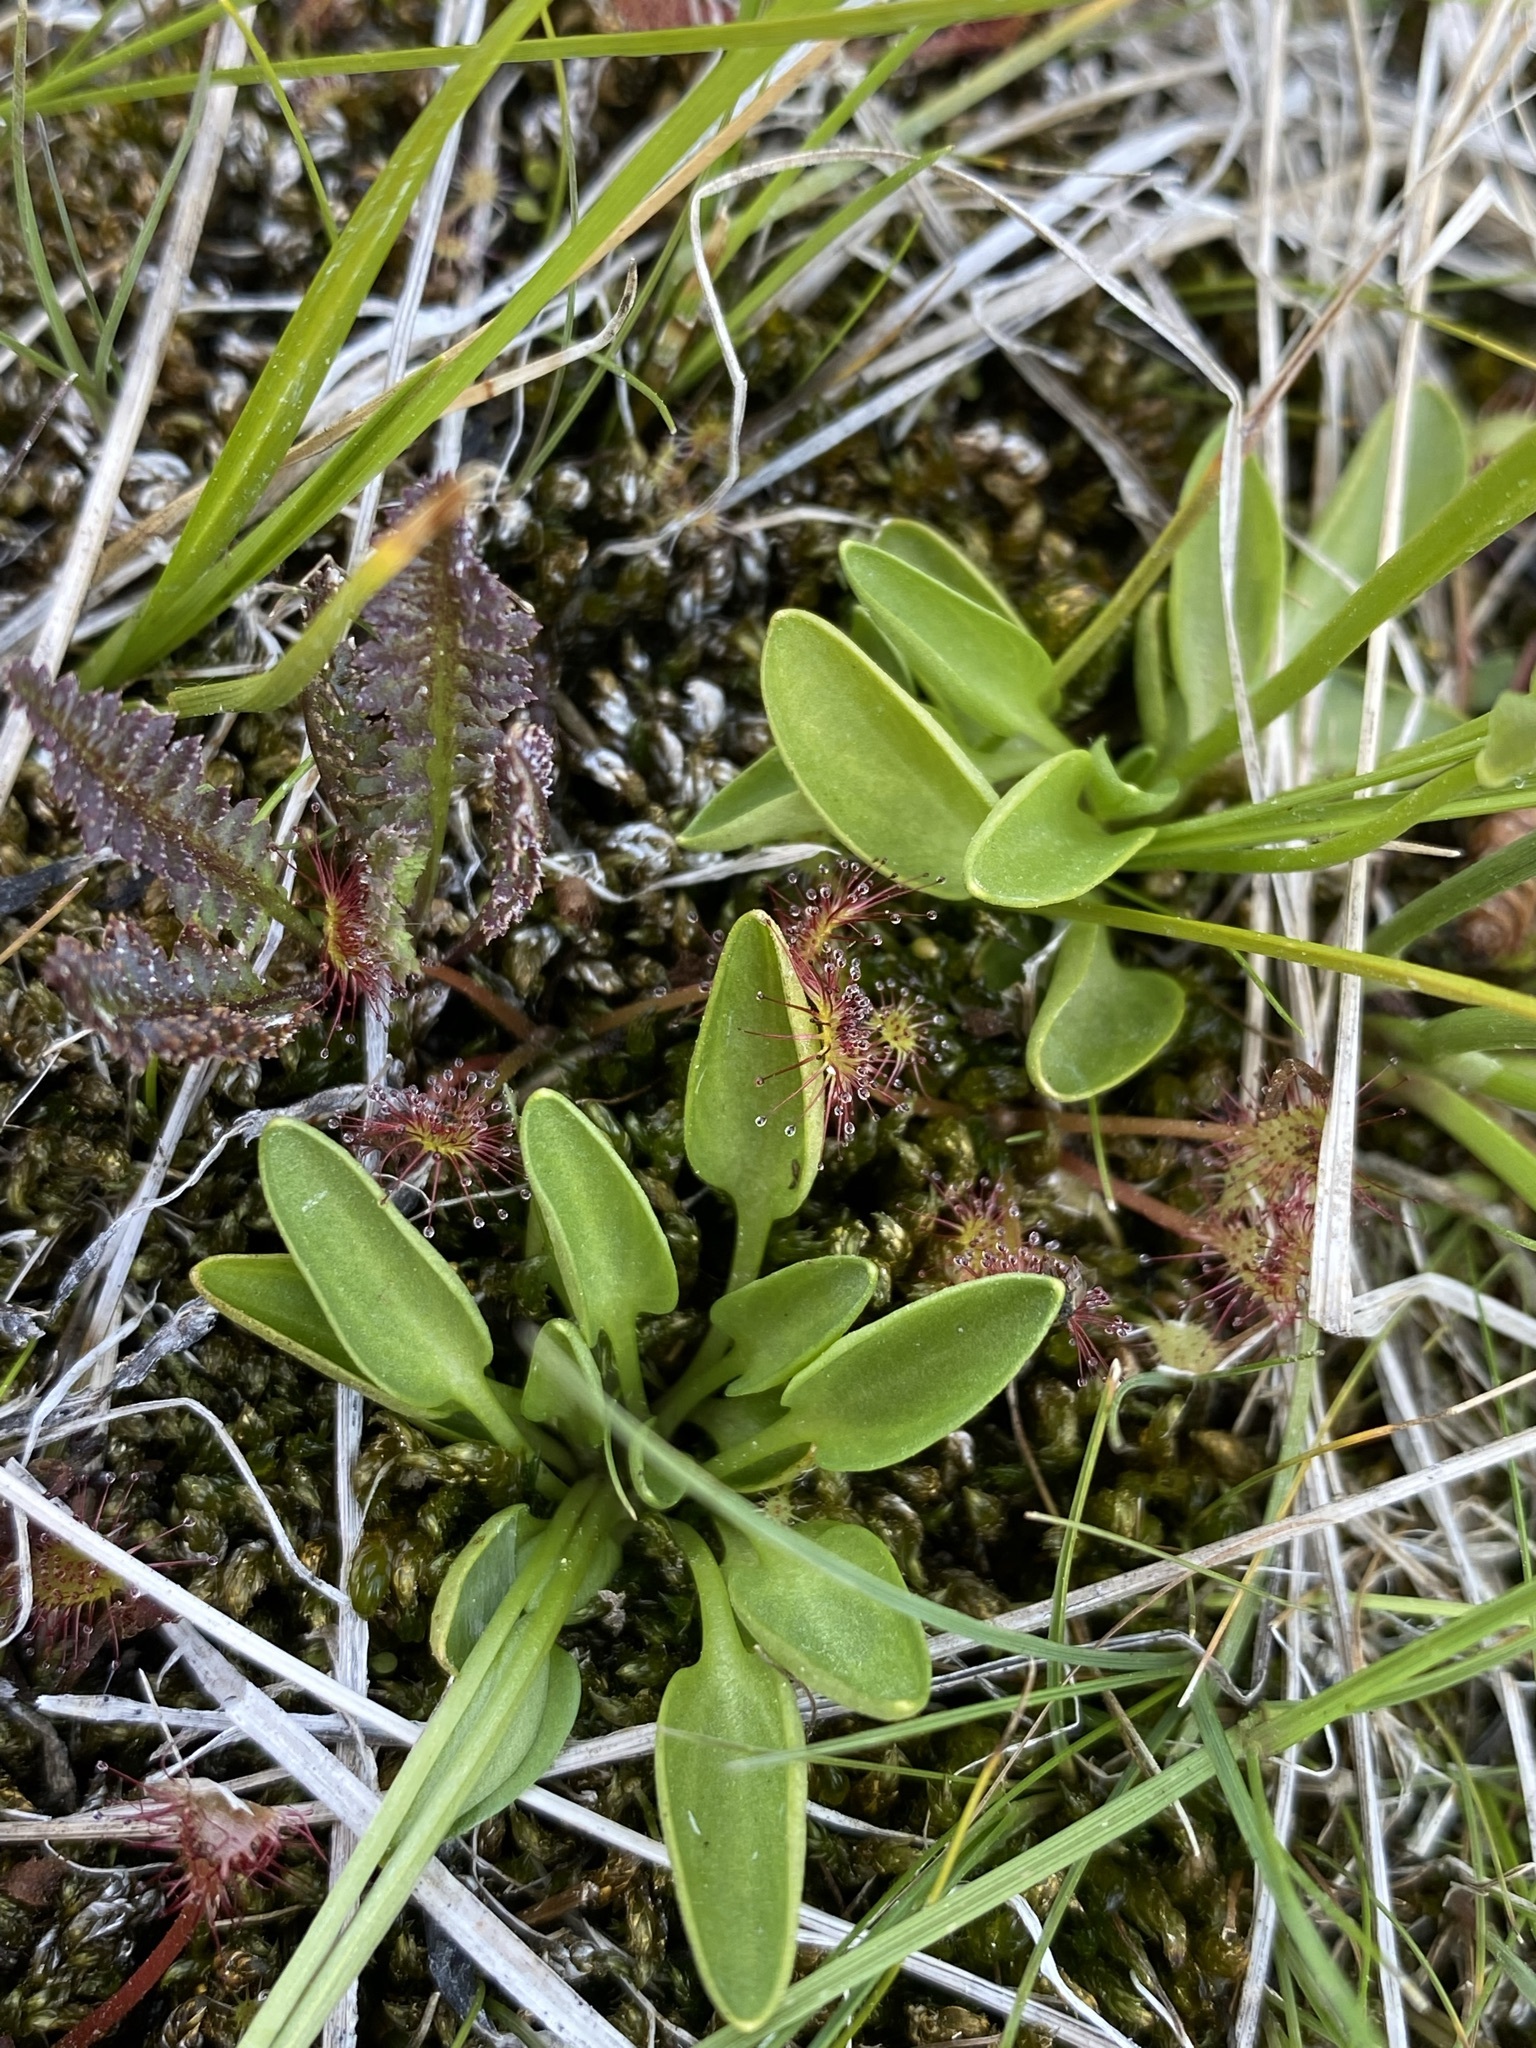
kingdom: Plantae
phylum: Tracheophyta
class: Magnoliopsida
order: Celastrales
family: Parnassiaceae
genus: Parnassia
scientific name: Parnassia parviflora
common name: Small-flowered grass-of-parnassus
